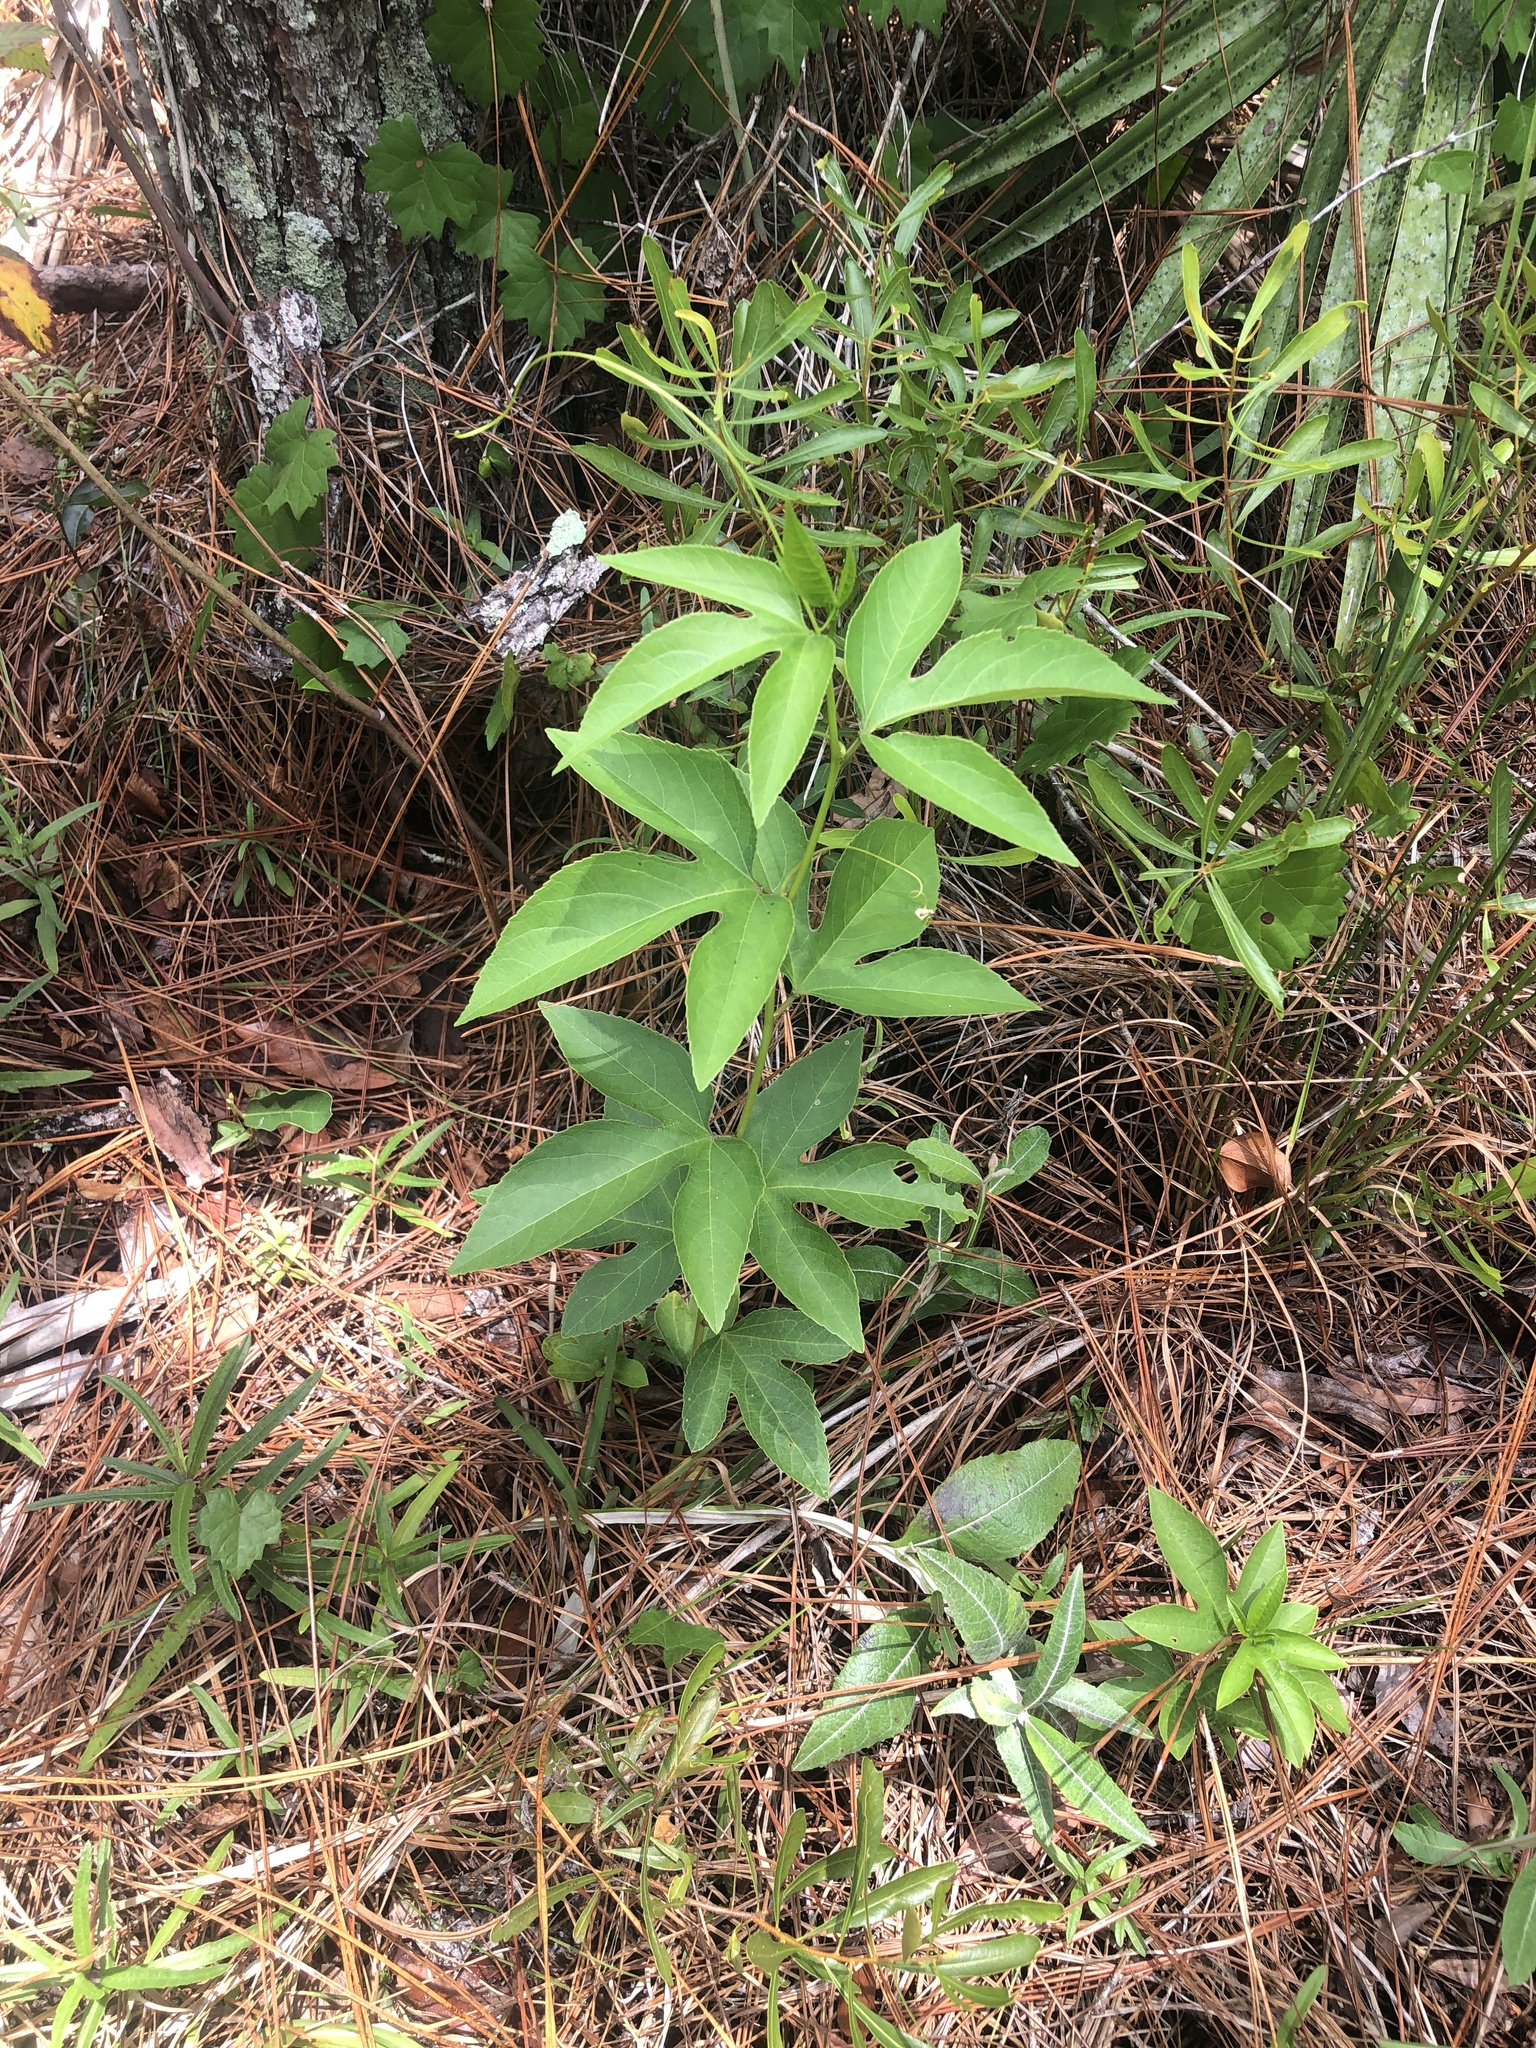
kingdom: Plantae
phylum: Tracheophyta
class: Magnoliopsida
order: Malpighiales
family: Passifloraceae
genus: Passiflora
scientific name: Passiflora incarnata
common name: Apricot-vine
